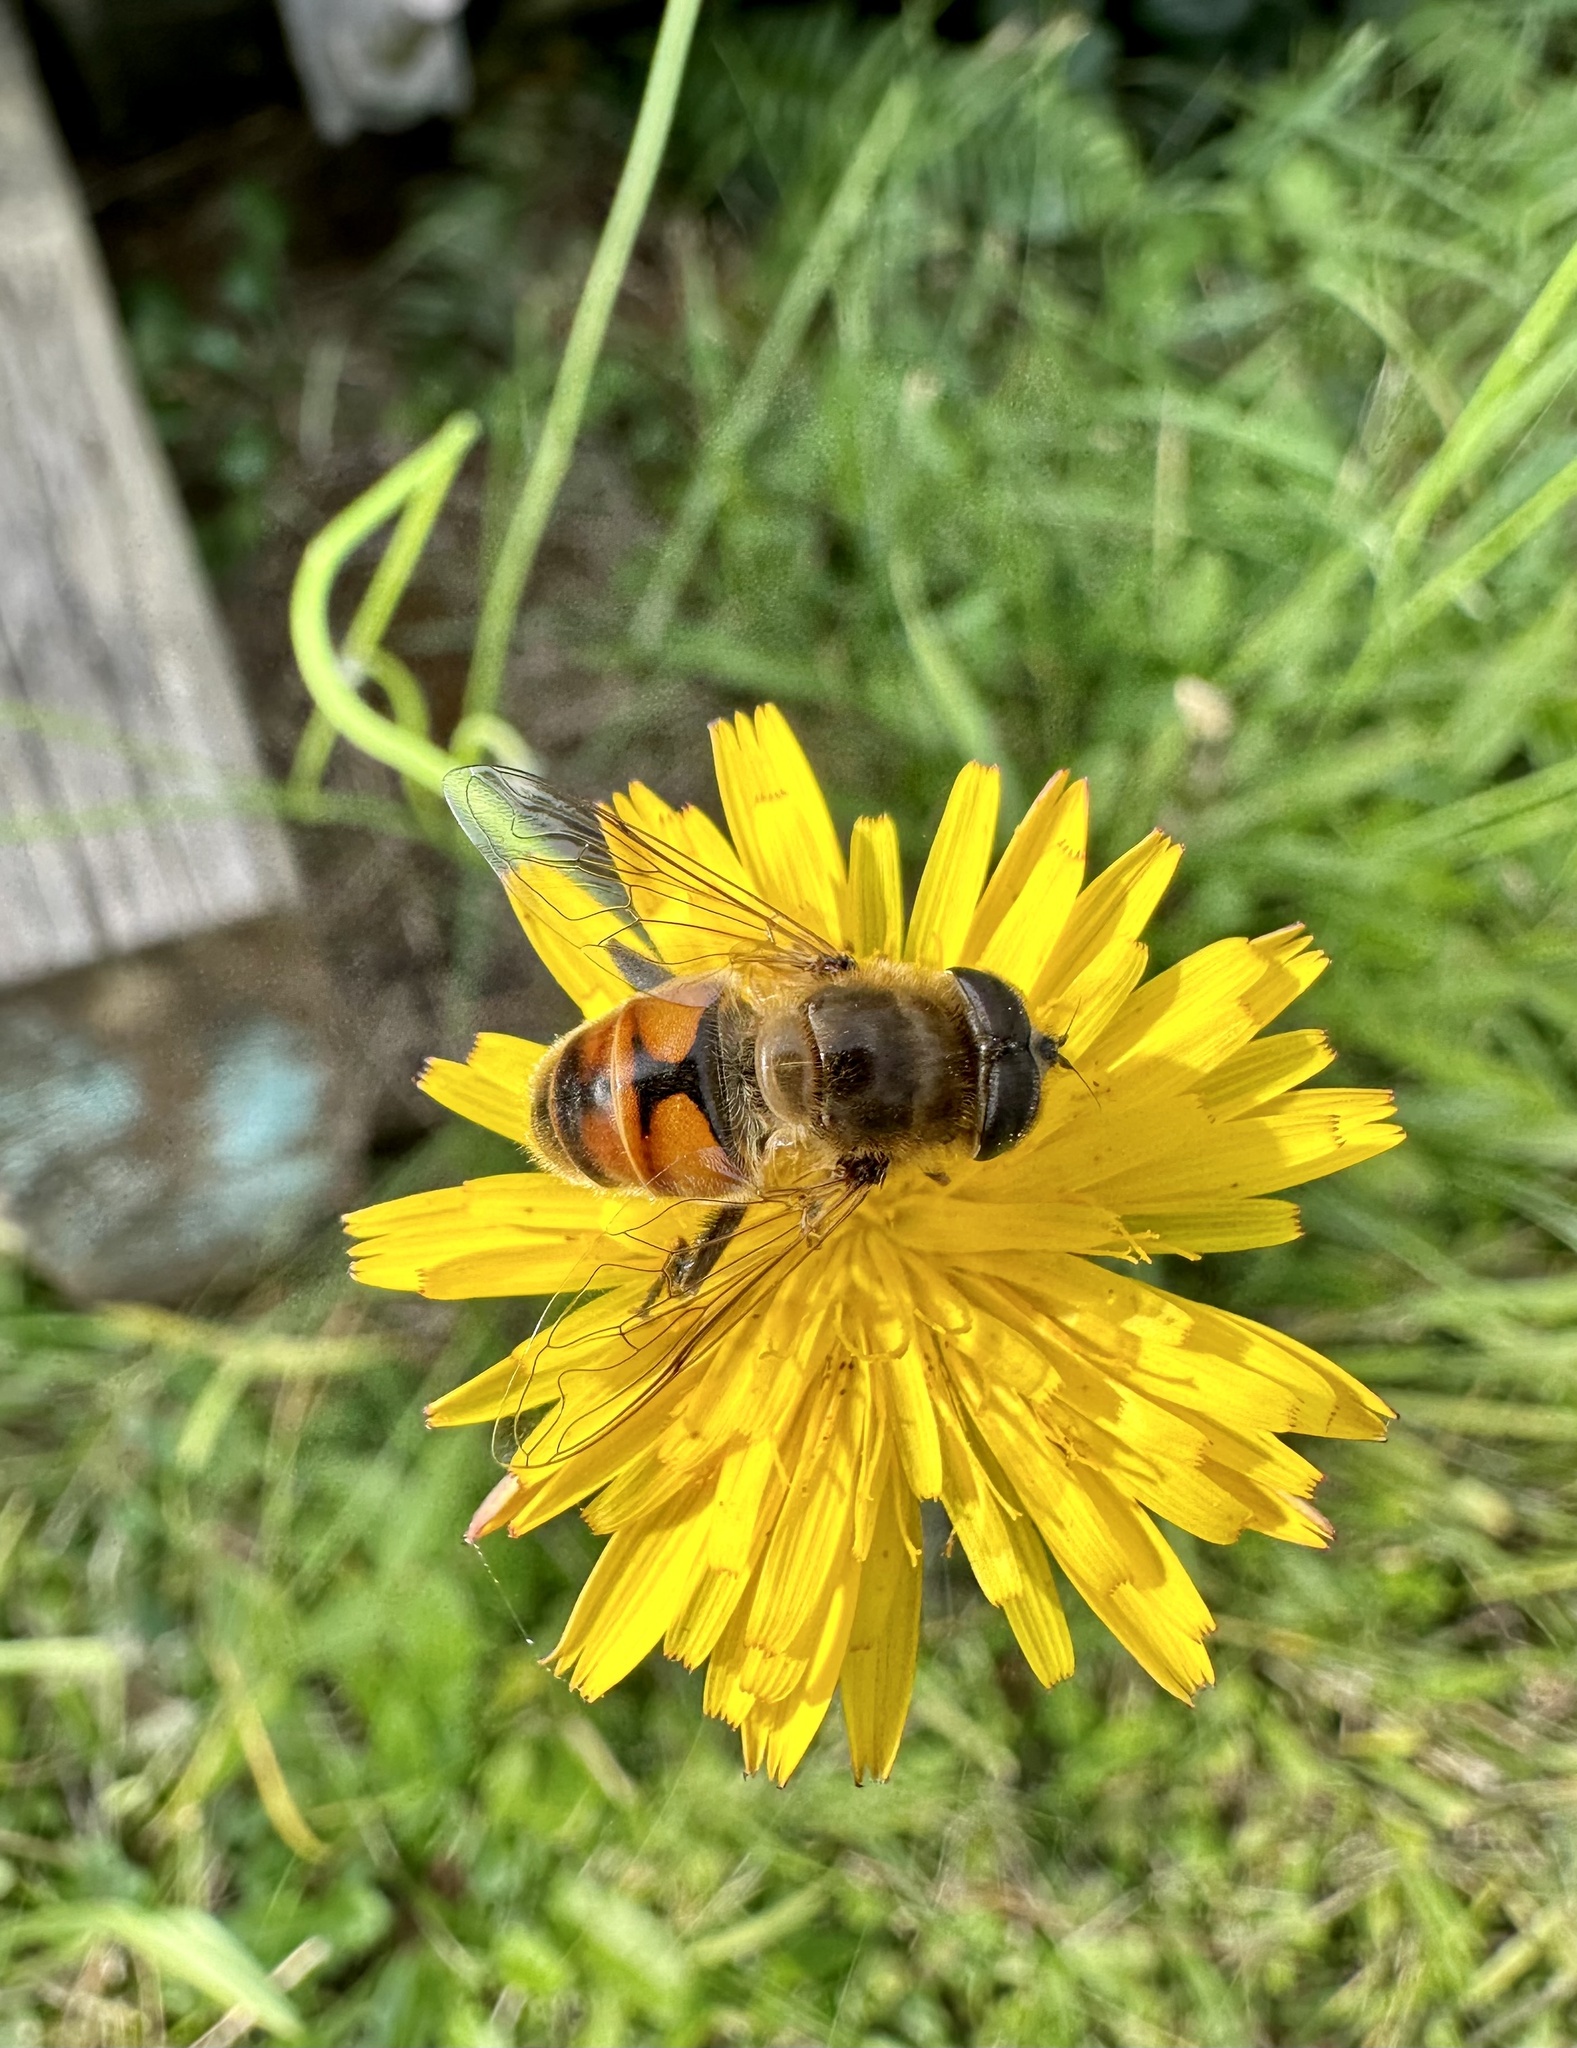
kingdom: Animalia
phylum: Arthropoda
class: Insecta
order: Diptera
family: Syrphidae
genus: Eristalis
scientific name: Eristalis tenax
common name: Drone fly
